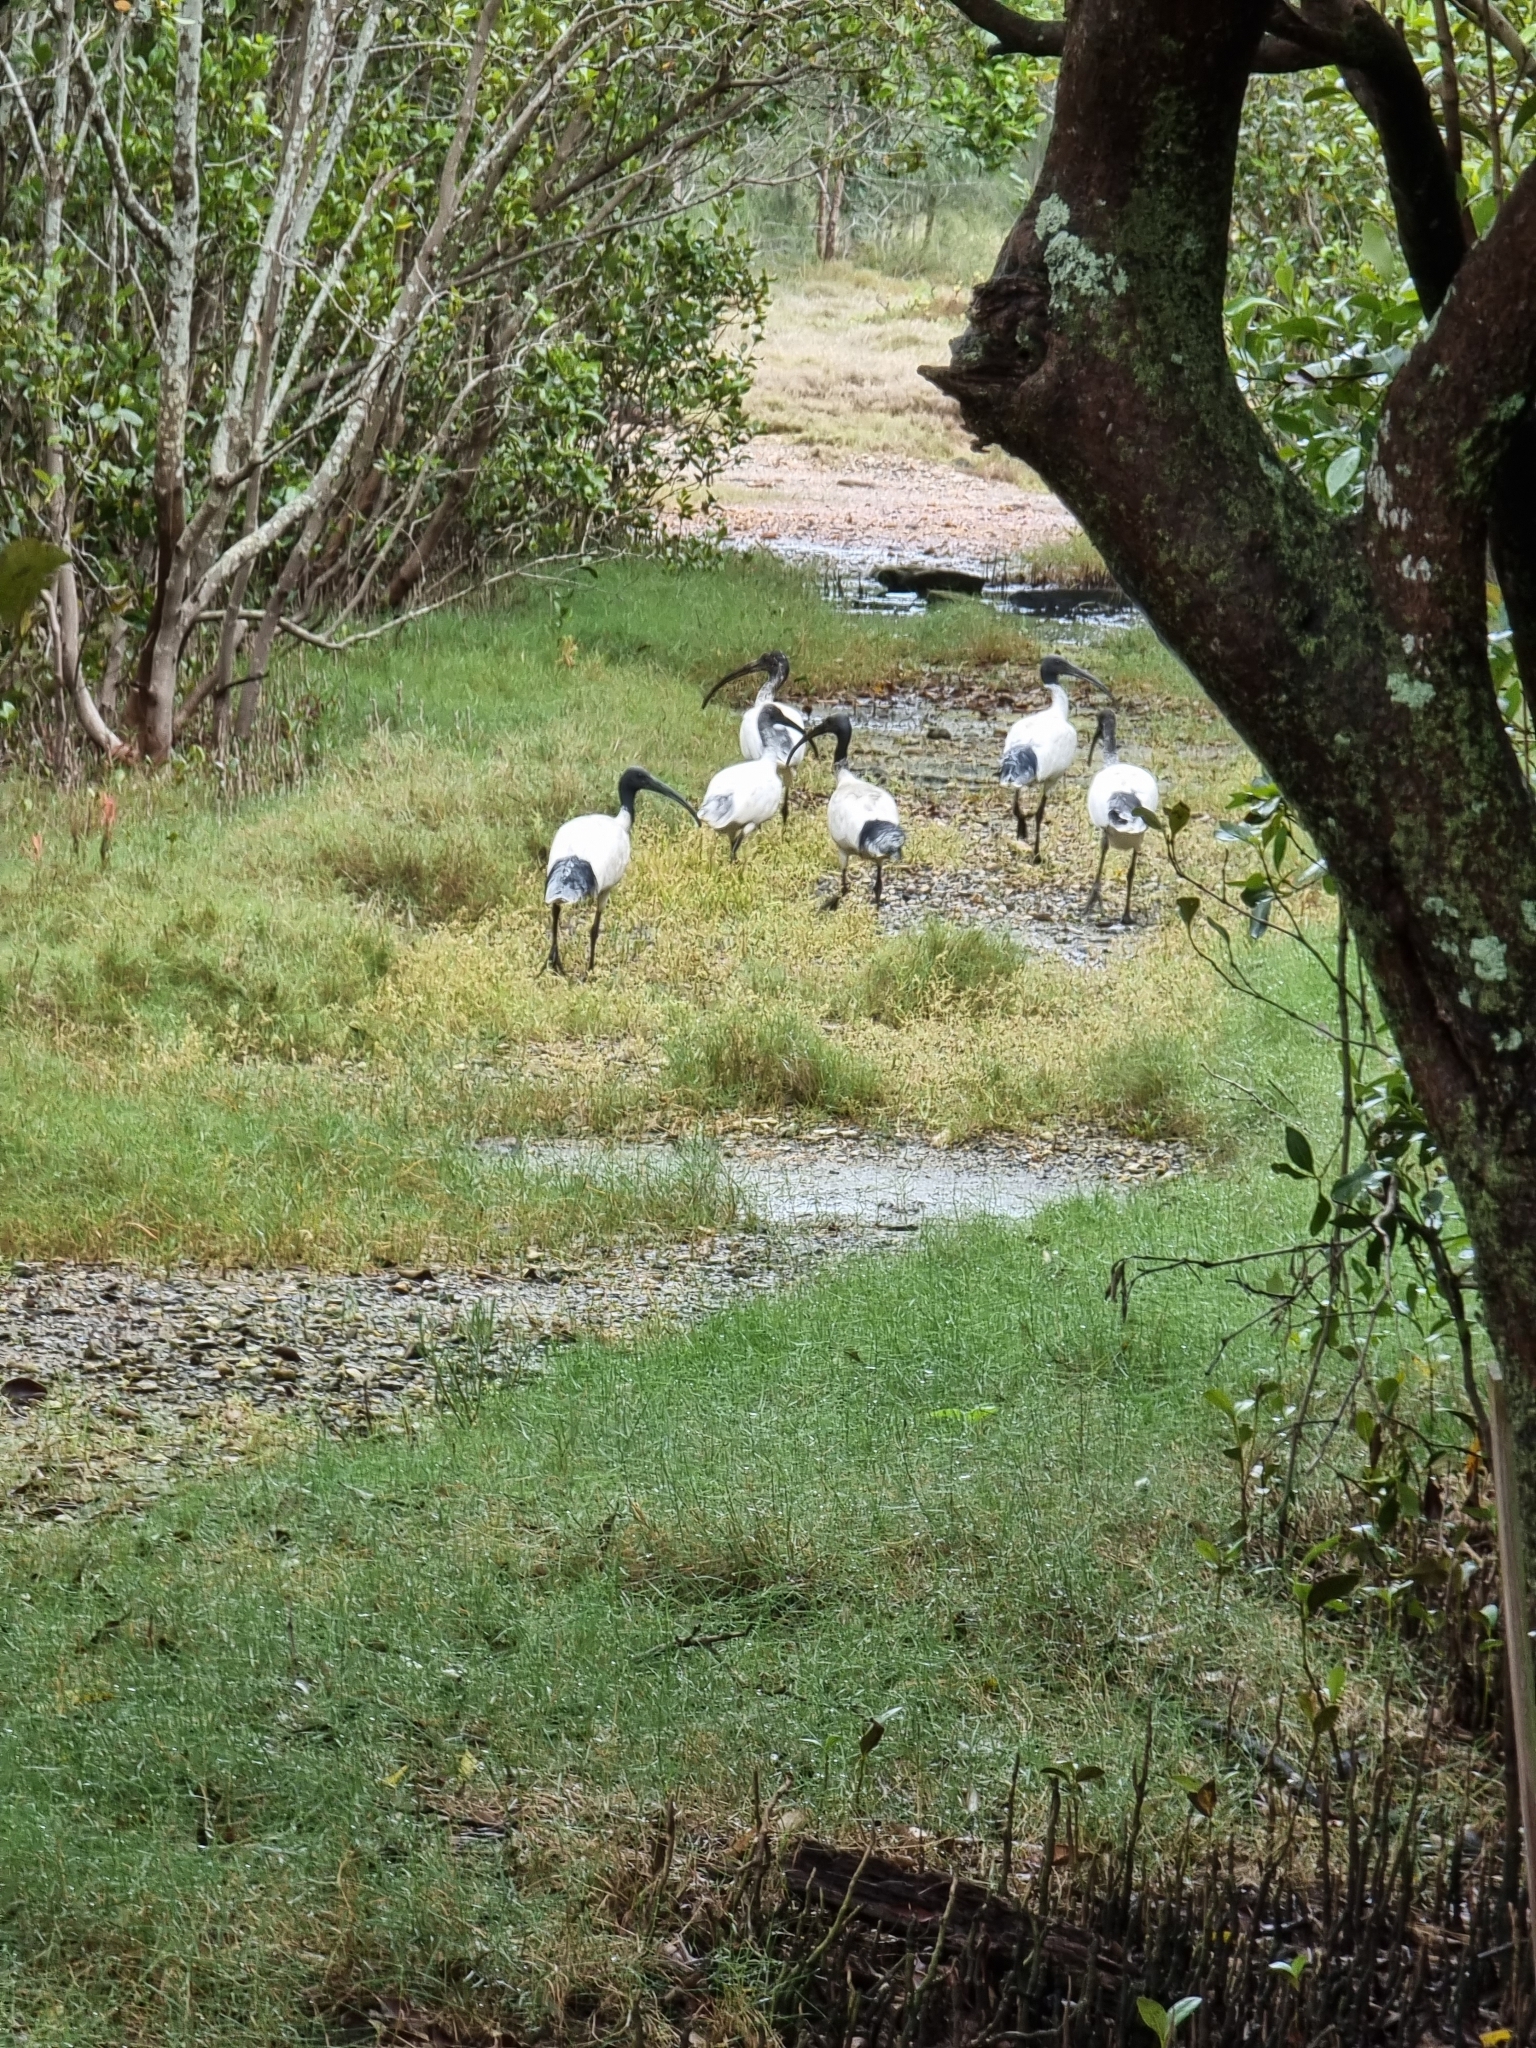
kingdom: Animalia
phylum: Chordata
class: Aves
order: Pelecaniformes
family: Threskiornithidae
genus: Threskiornis
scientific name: Threskiornis molucca
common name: Australian white ibis
